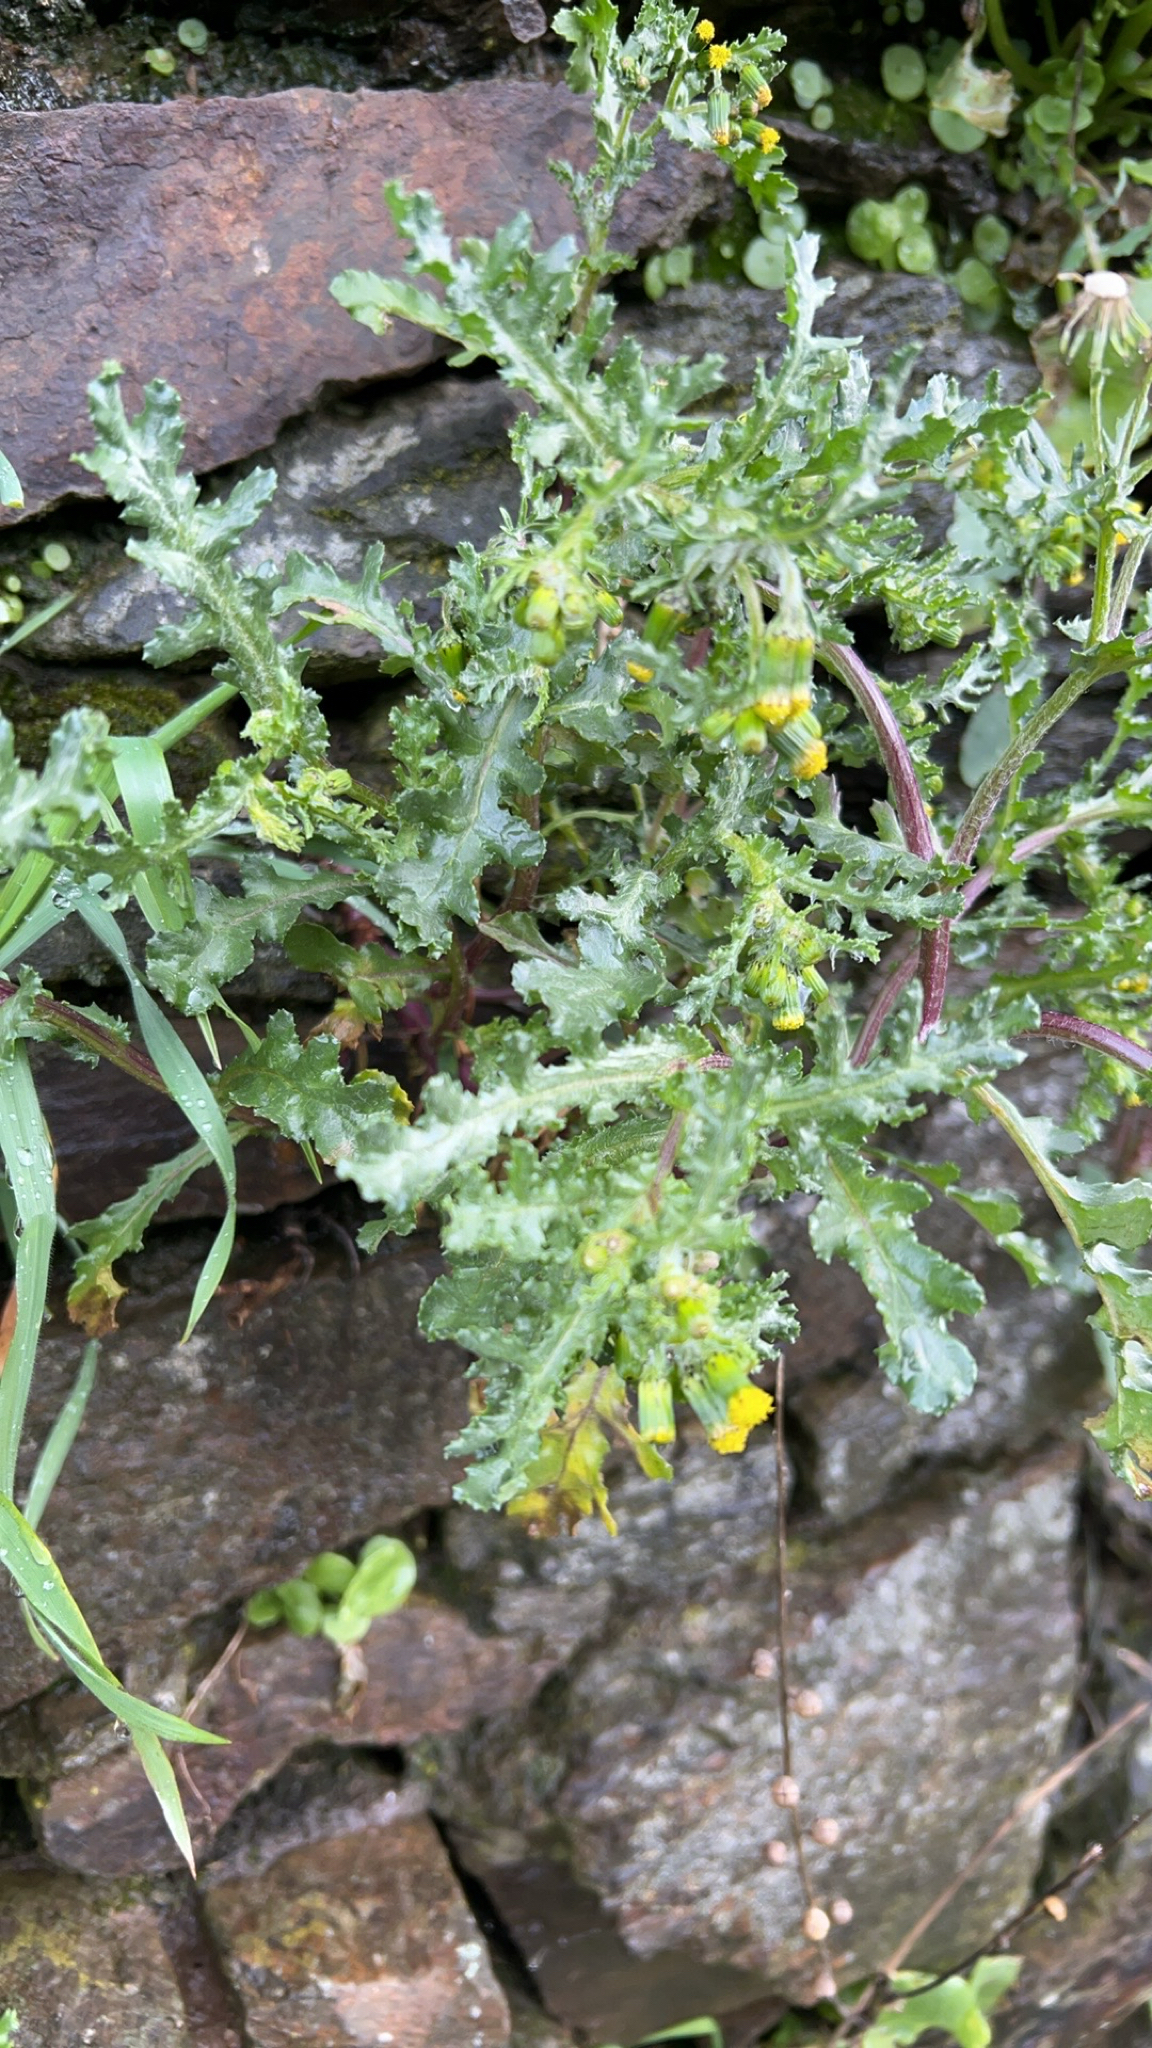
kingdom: Plantae
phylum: Tracheophyta
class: Magnoliopsida
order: Asterales
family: Asteraceae
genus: Senecio
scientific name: Senecio vulgaris
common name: Old-man-in-the-spring
